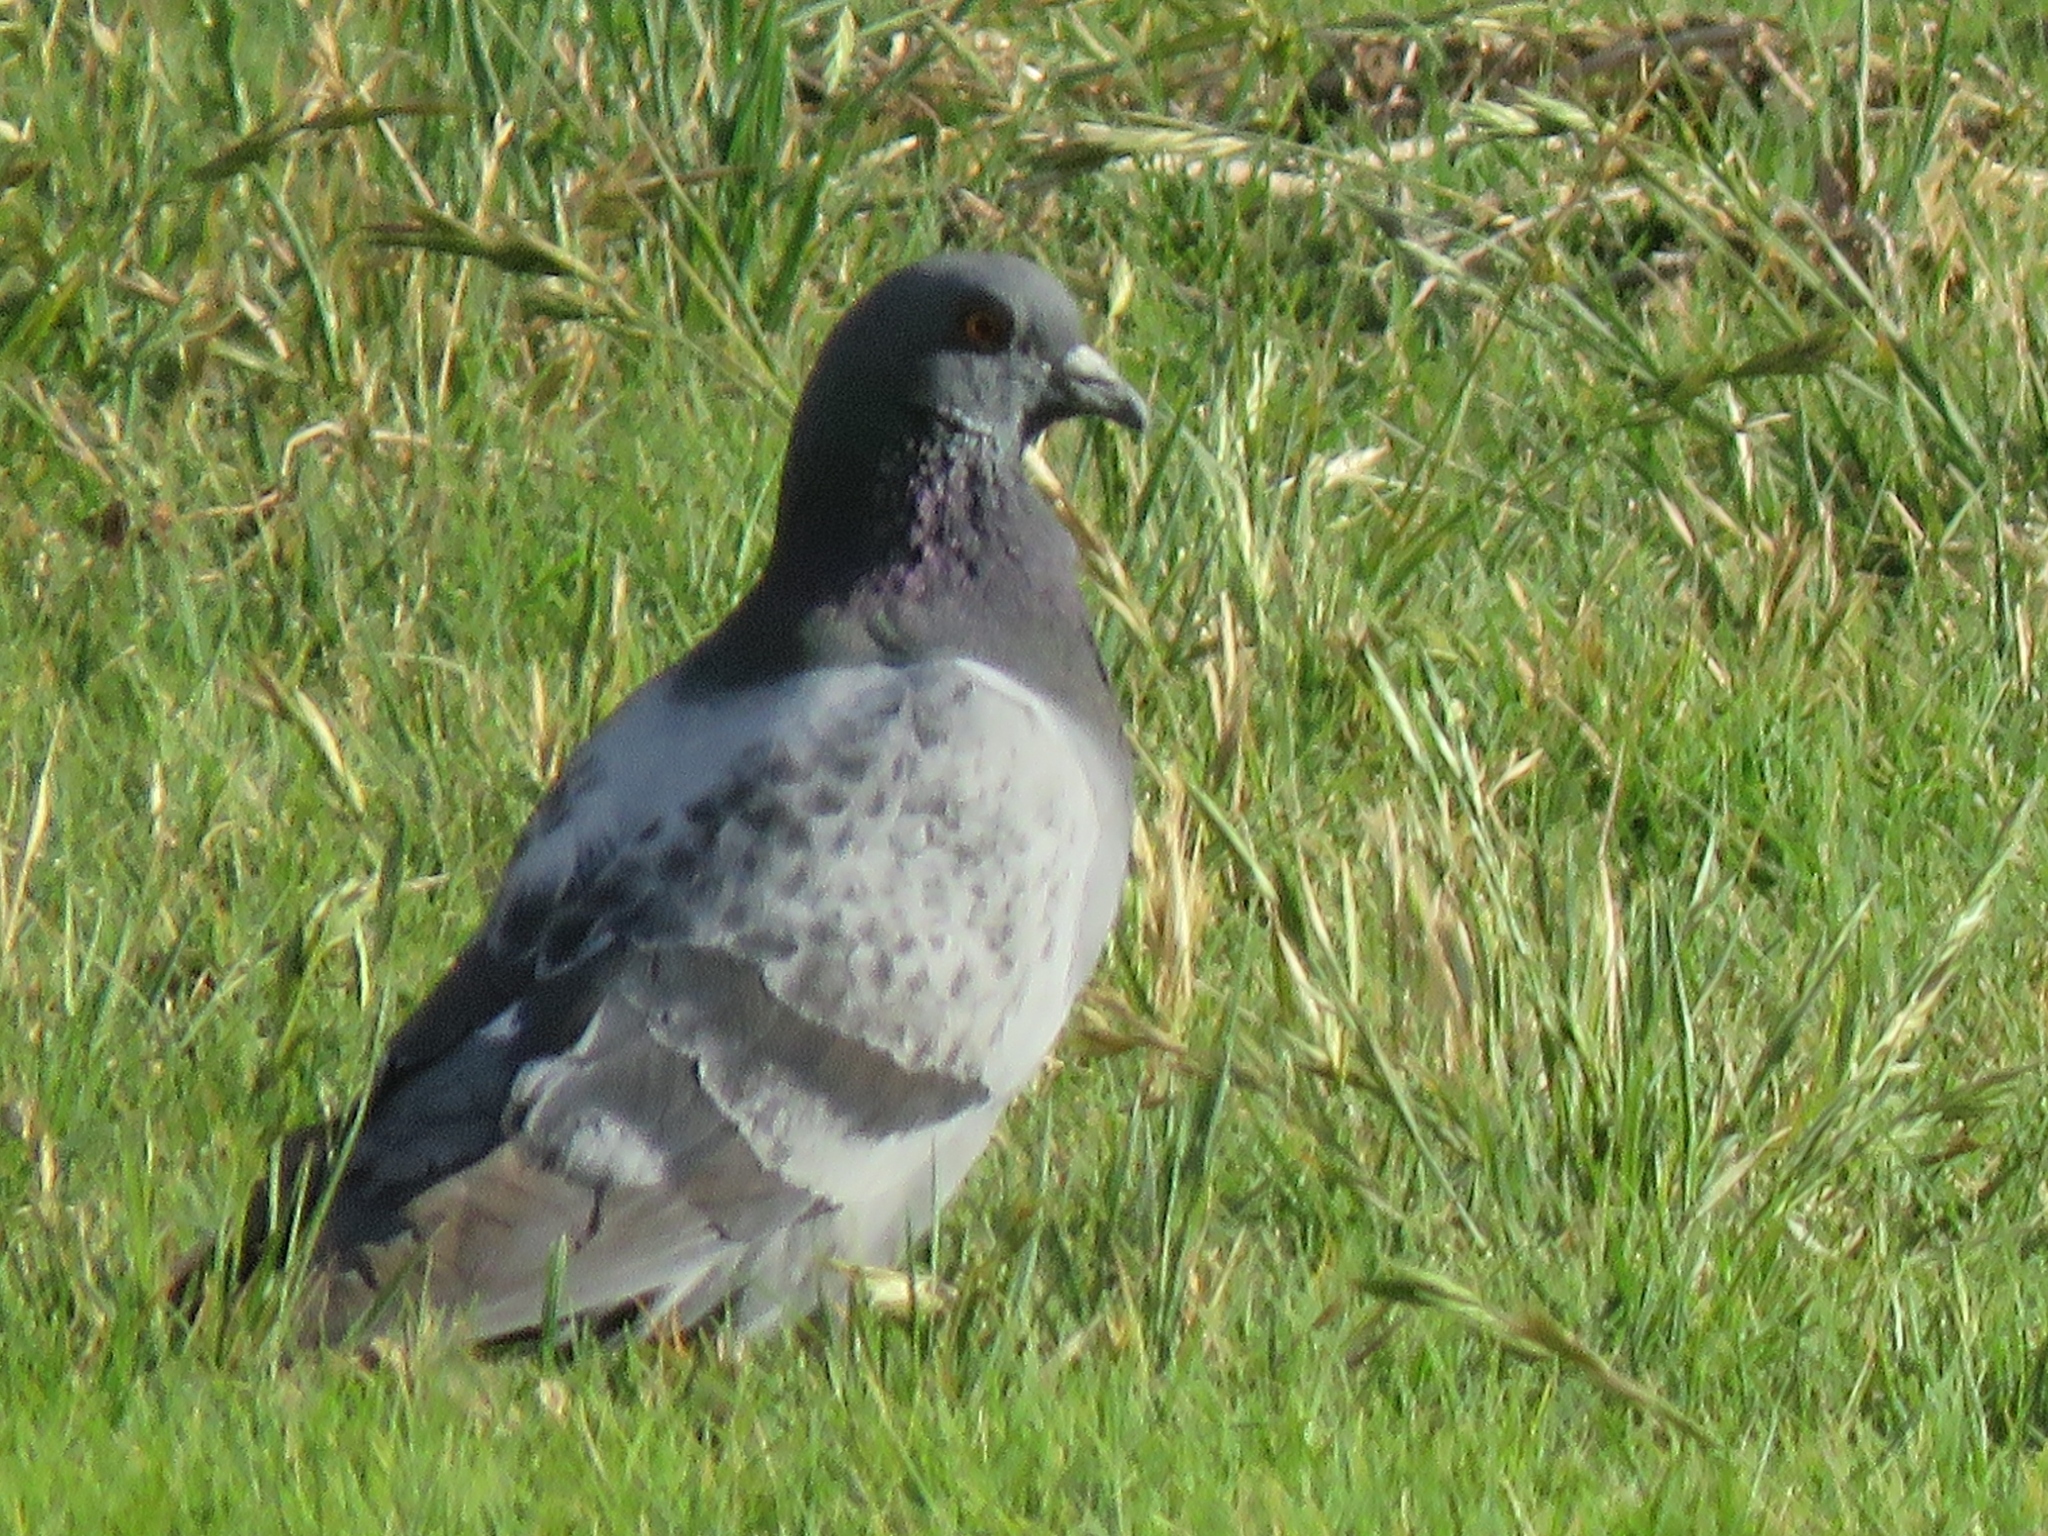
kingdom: Animalia
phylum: Chordata
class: Aves
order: Columbiformes
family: Columbidae
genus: Columba
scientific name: Columba livia
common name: Rock pigeon
